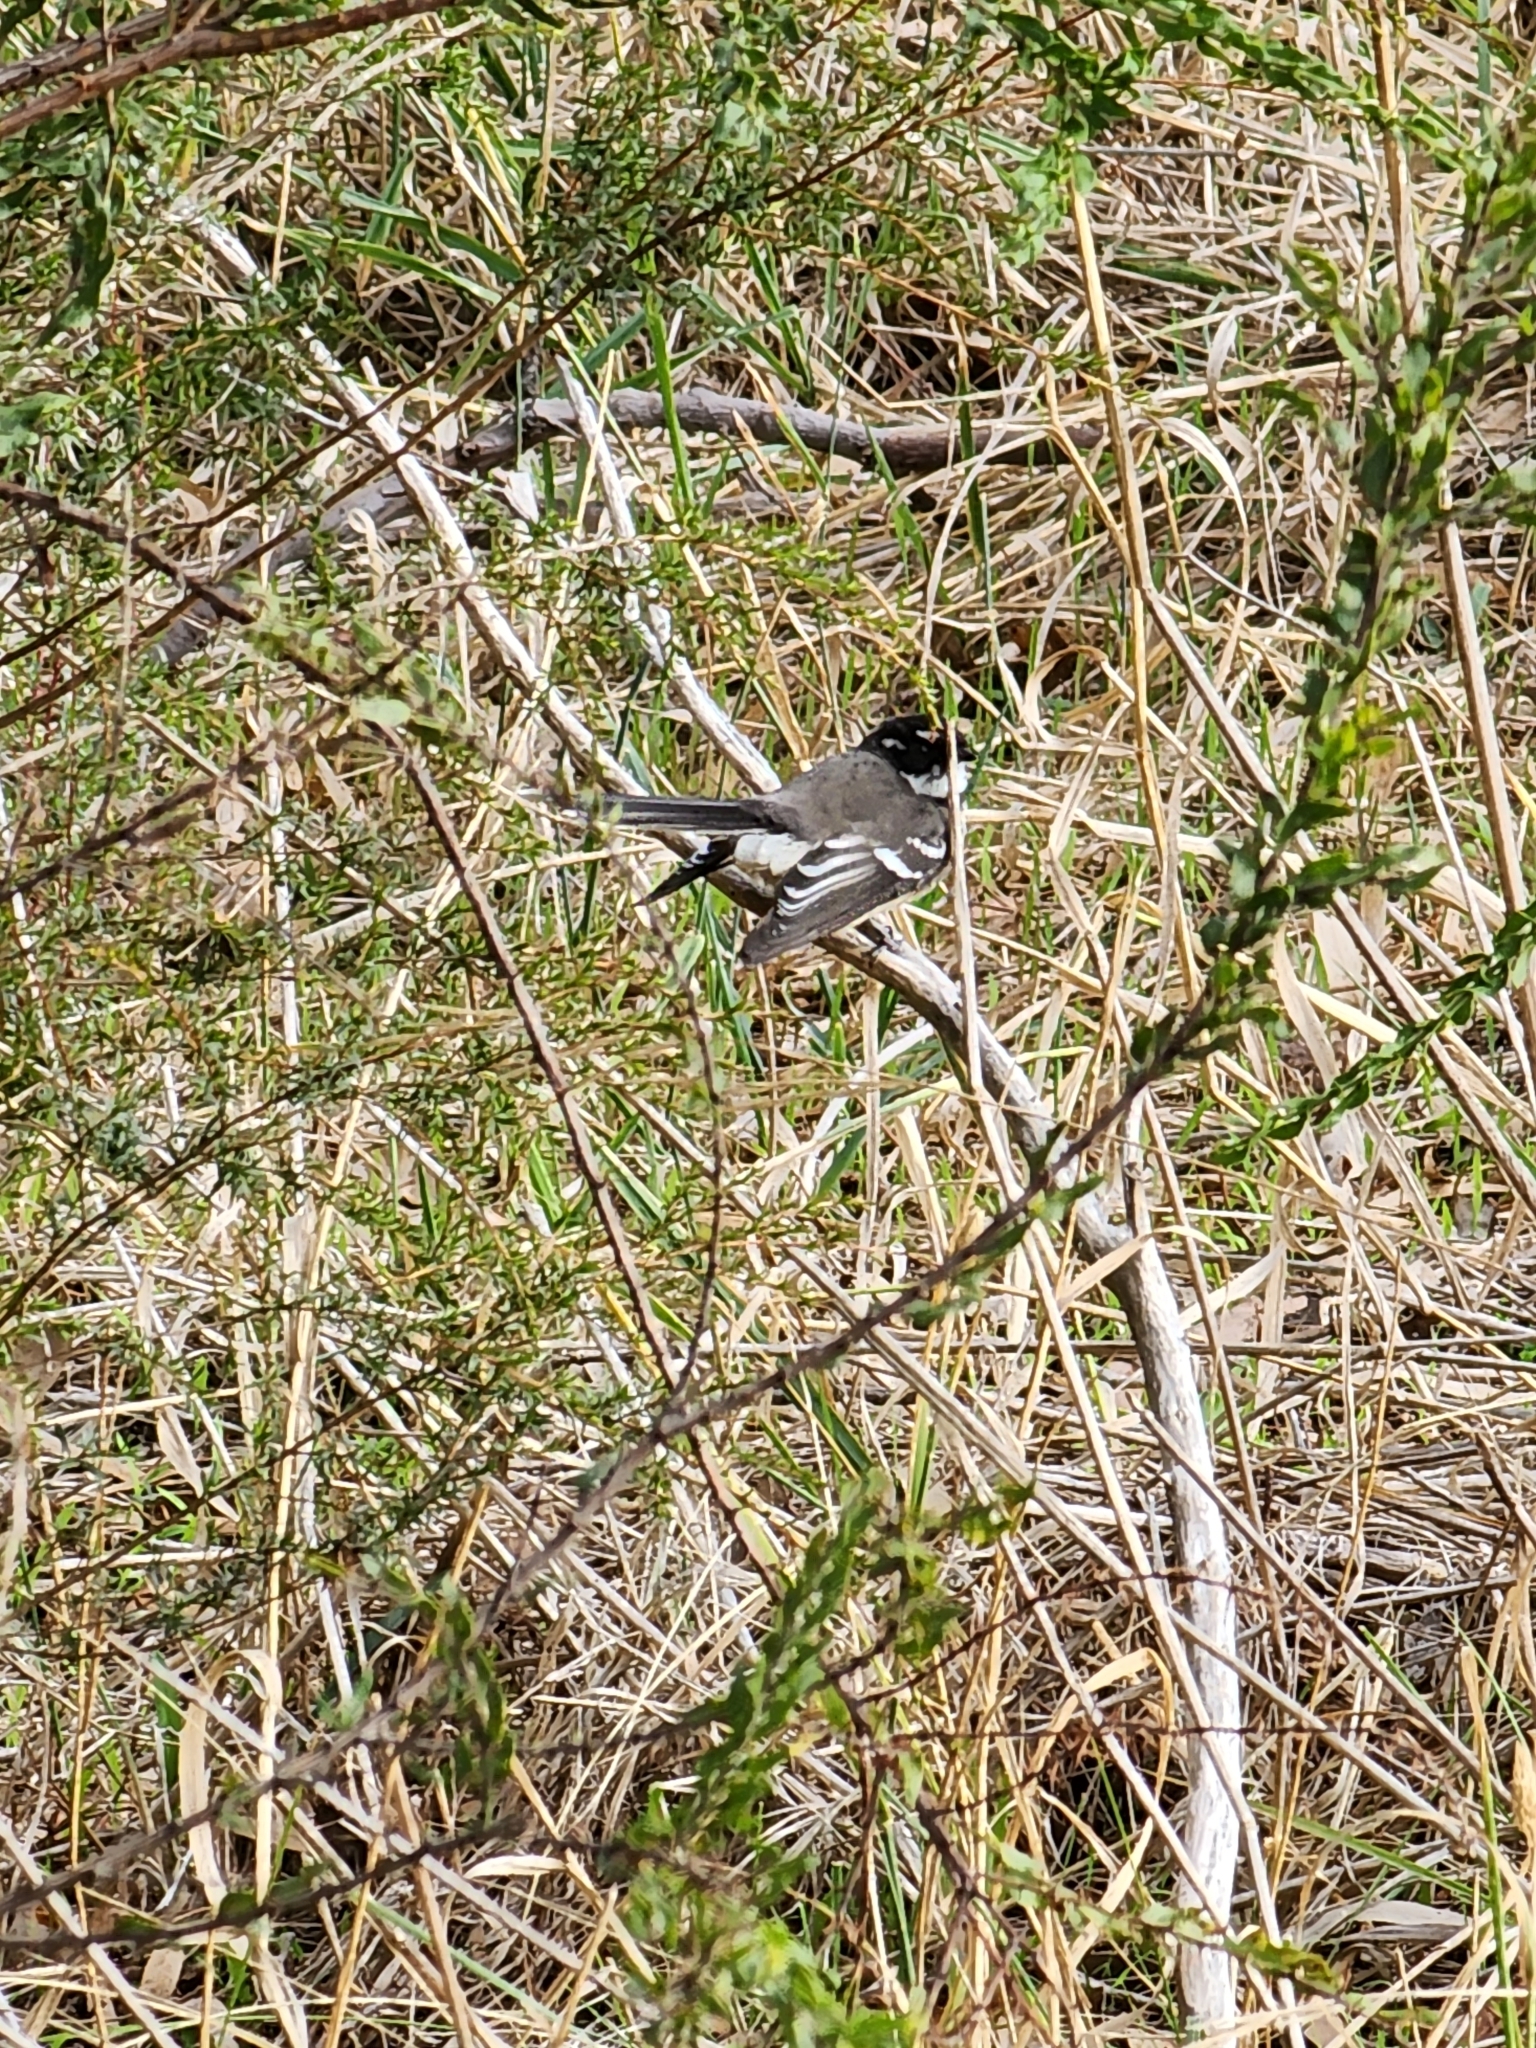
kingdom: Animalia
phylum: Chordata
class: Aves
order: Passeriformes
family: Rhipiduridae
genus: Rhipidura
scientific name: Rhipidura albiscapa
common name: Grey fantail
